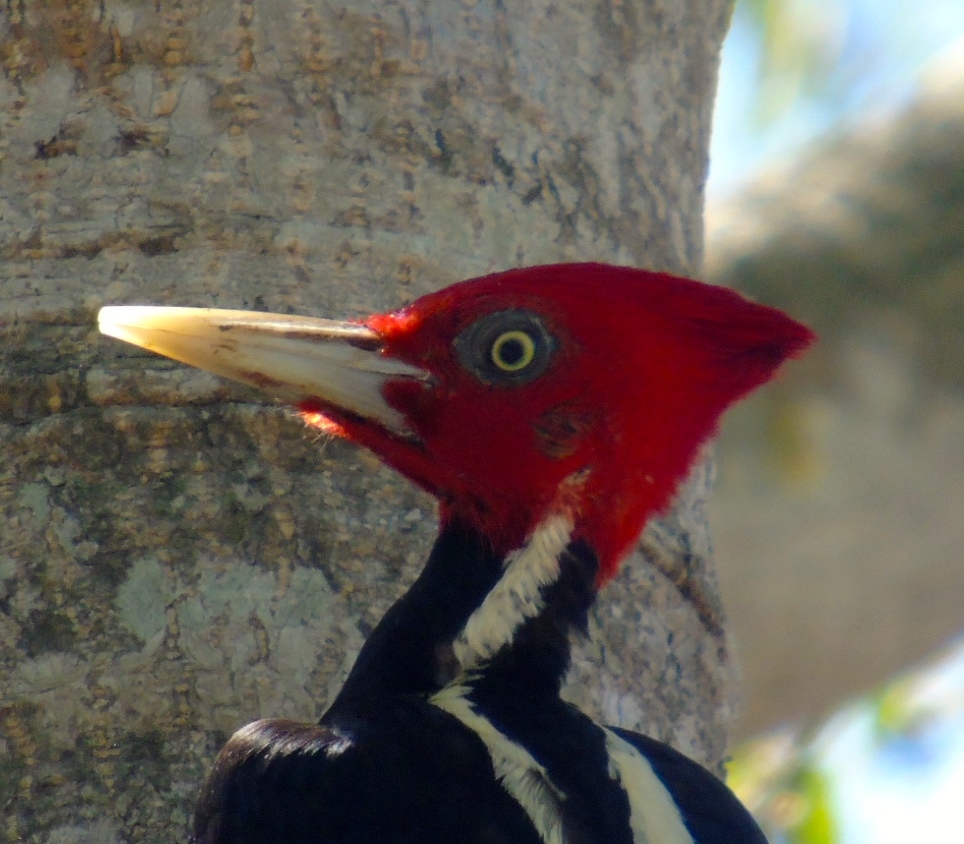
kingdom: Animalia
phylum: Chordata
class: Aves
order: Piciformes
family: Picidae
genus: Campephilus
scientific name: Campephilus guatemalensis
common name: Pale-billed woodpecker
